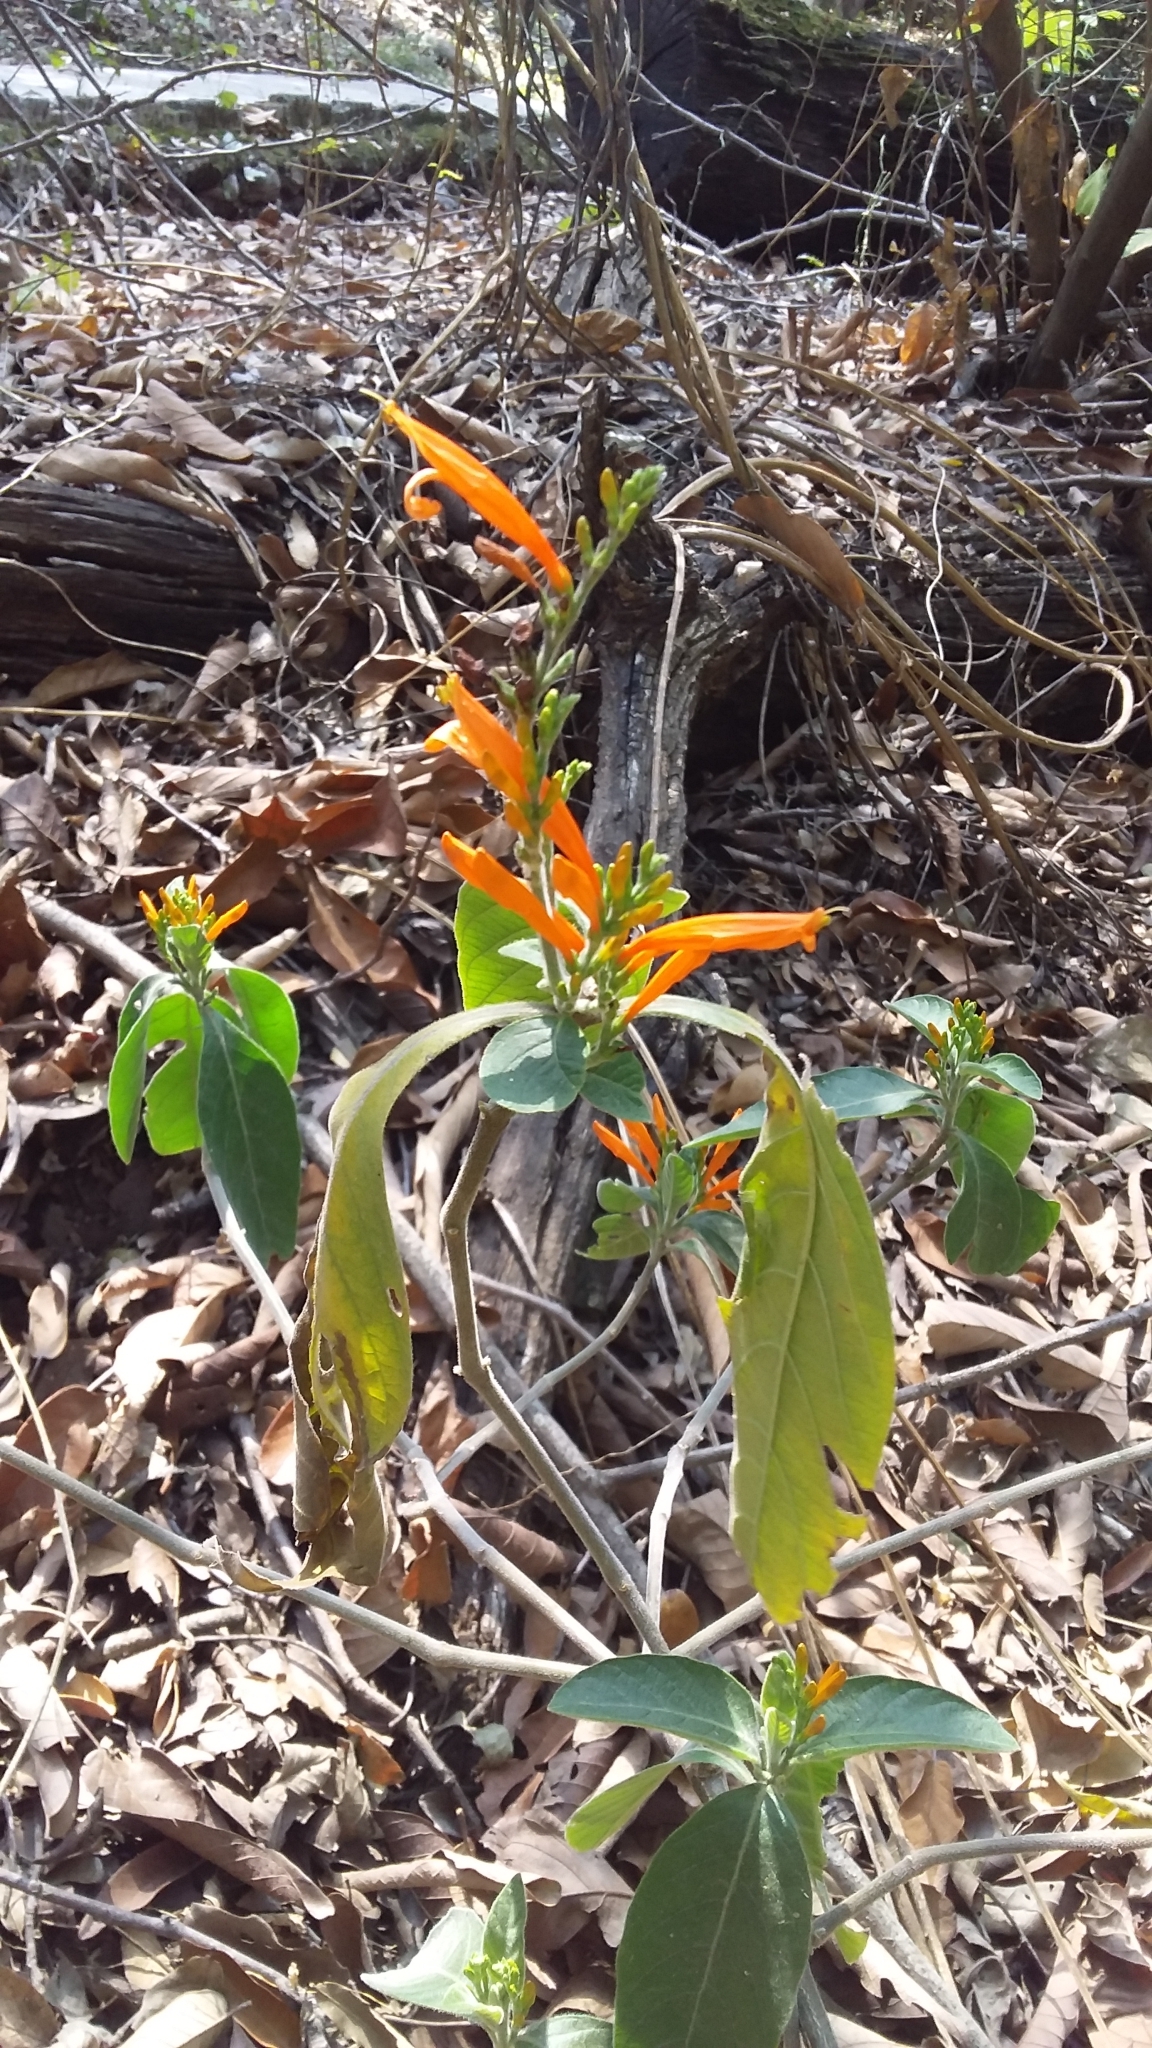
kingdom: Plantae
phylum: Tracheophyta
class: Magnoliopsida
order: Lamiales
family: Acanthaceae
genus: Justicia
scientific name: Justicia spicigera
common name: Mohintli
